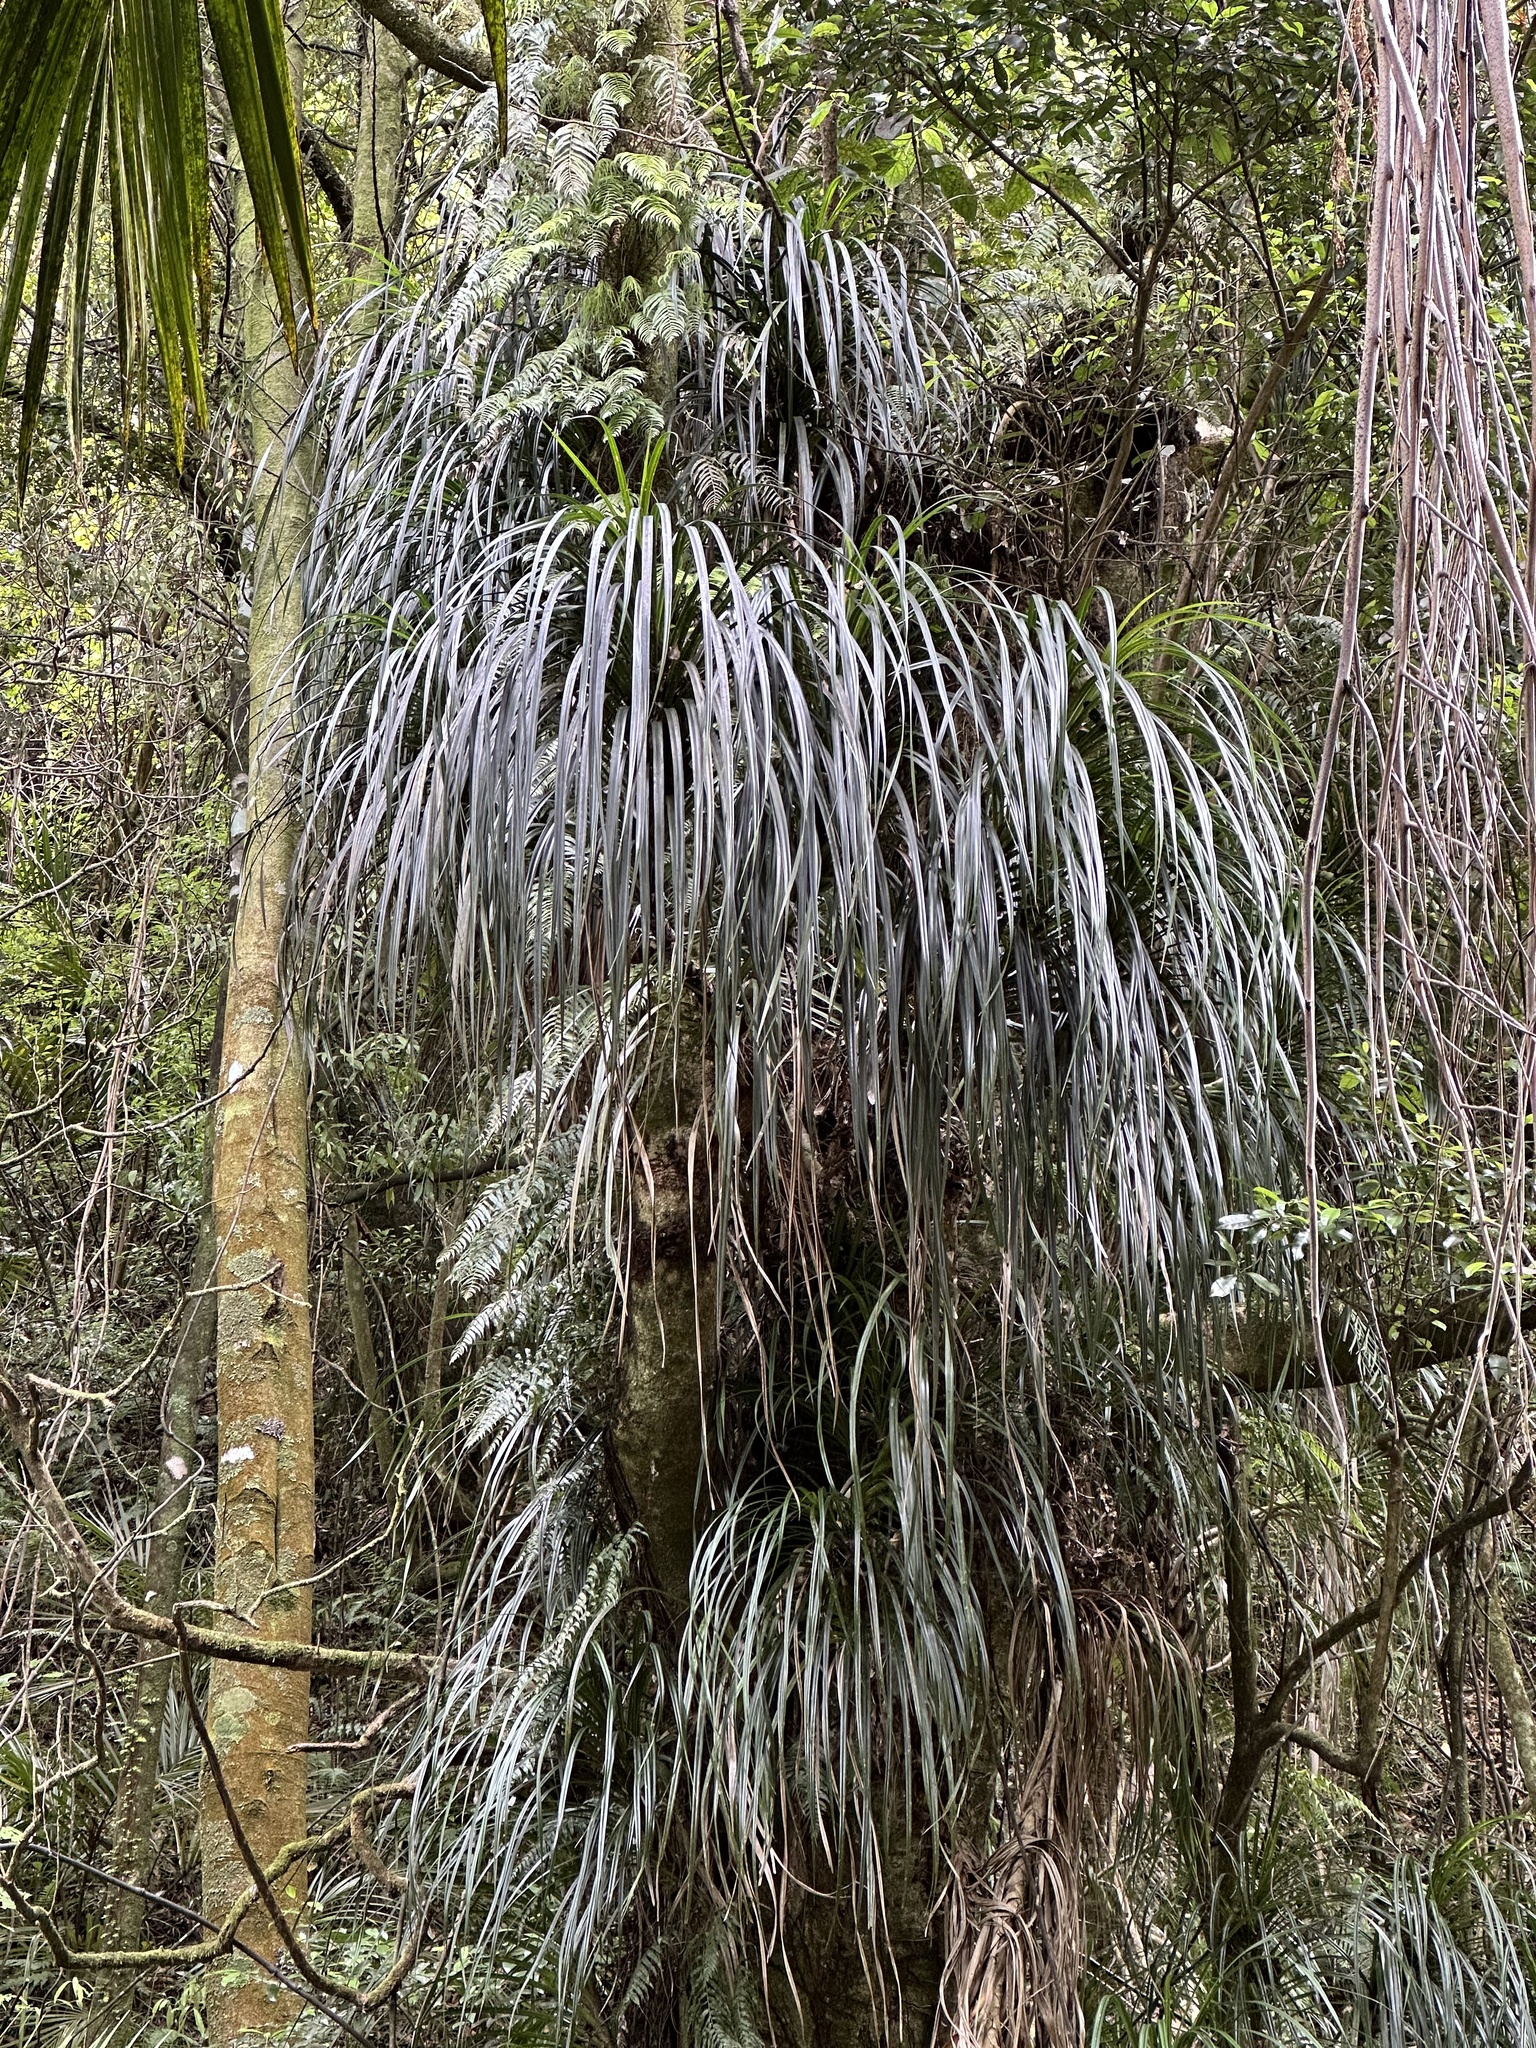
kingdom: Plantae
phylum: Tracheophyta
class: Liliopsida
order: Pandanales
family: Pandanaceae
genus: Freycinetia
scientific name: Freycinetia banksii
